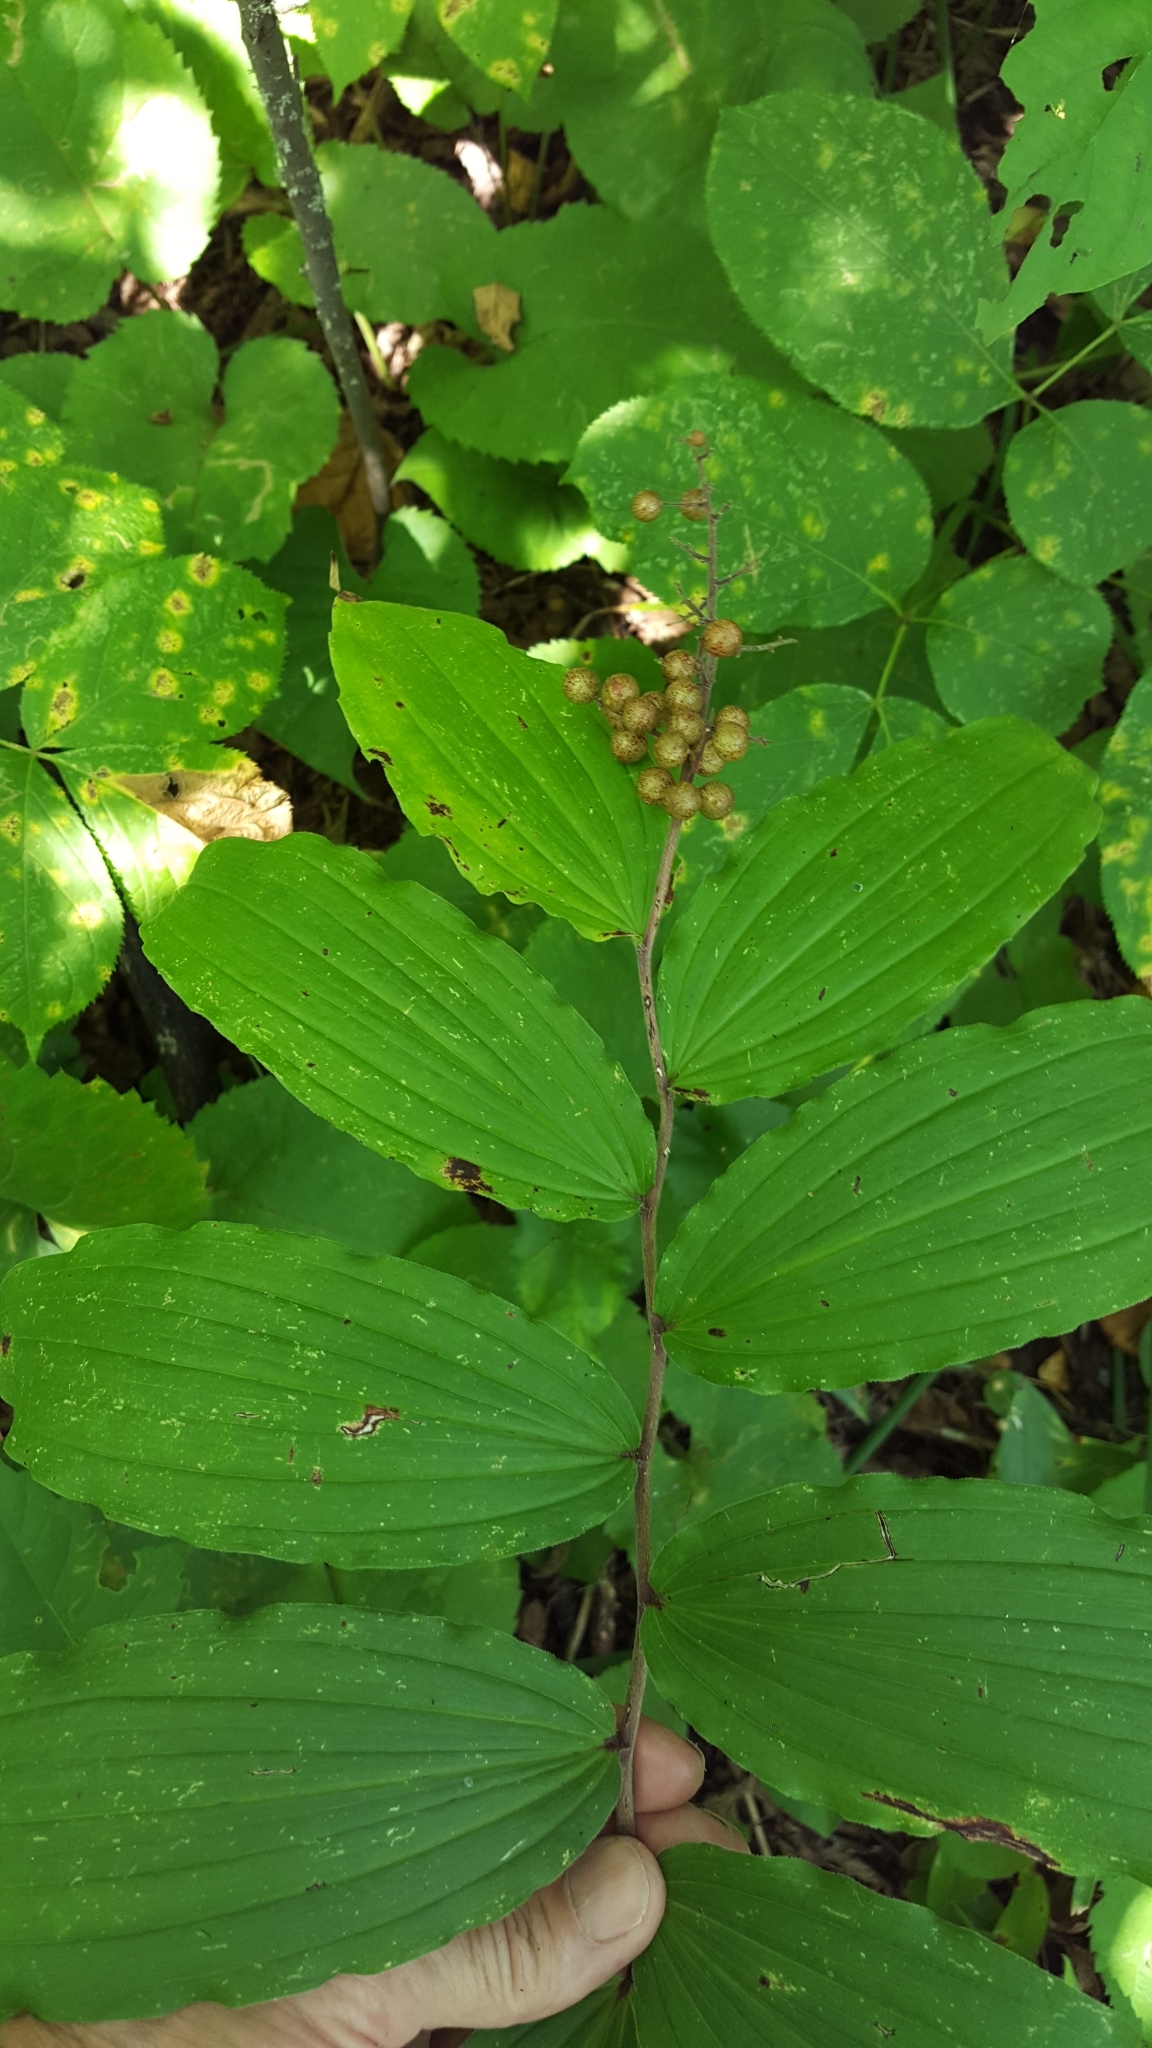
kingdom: Plantae
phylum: Tracheophyta
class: Liliopsida
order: Asparagales
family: Asparagaceae
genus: Maianthemum
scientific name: Maianthemum racemosum
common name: False spikenard
